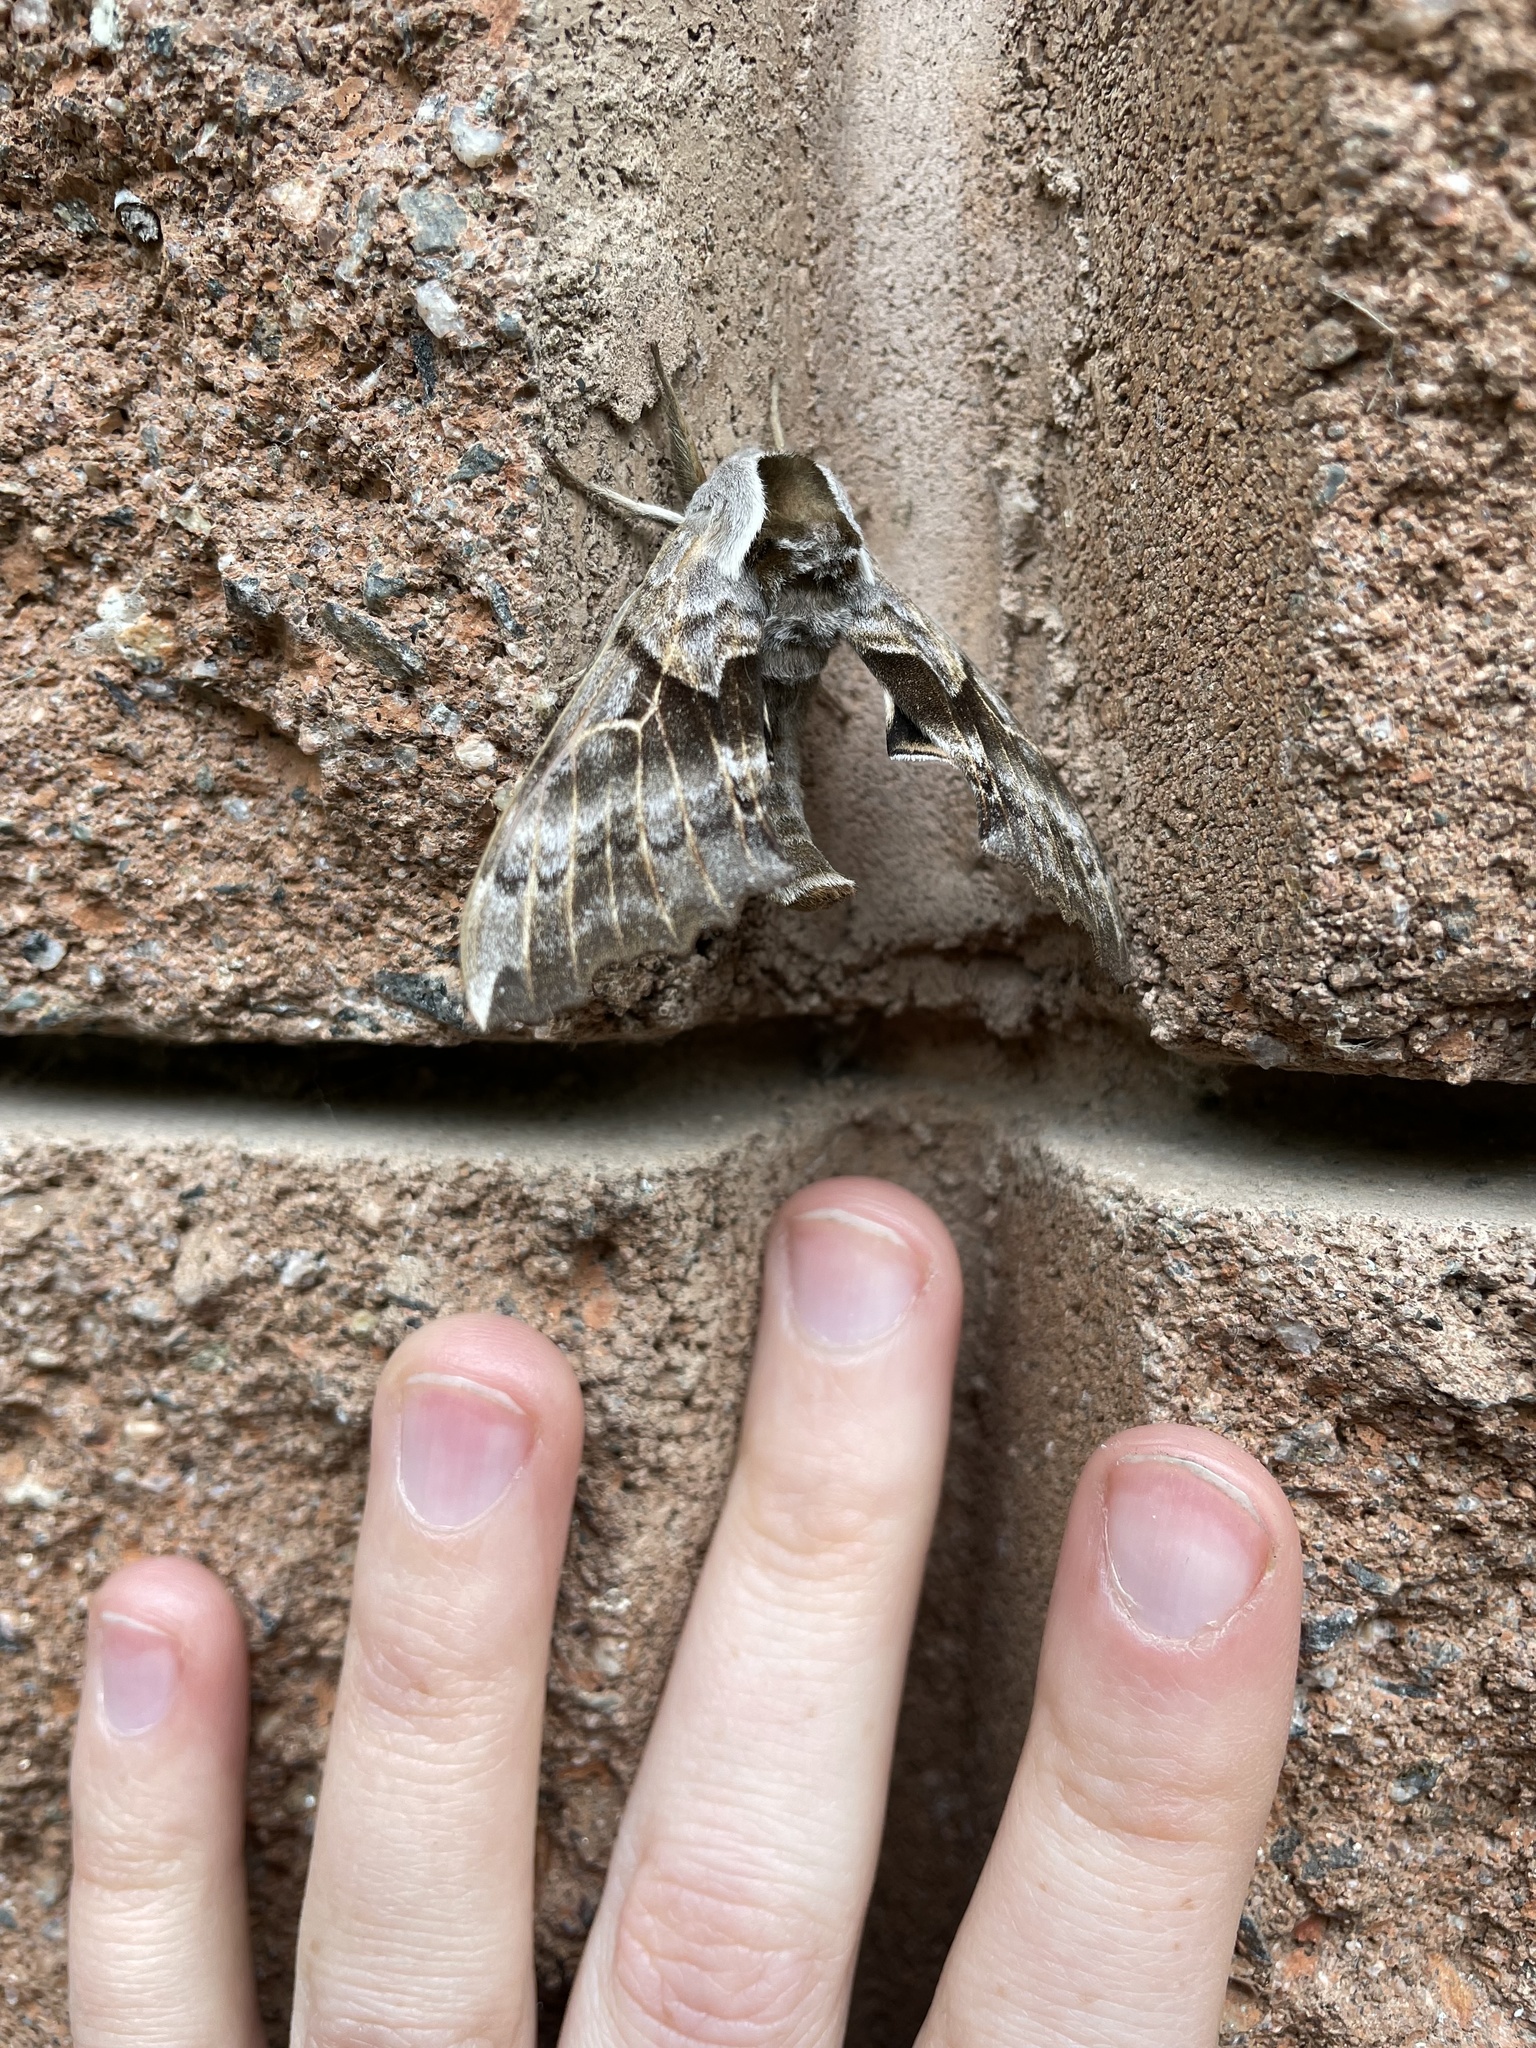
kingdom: Animalia
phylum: Arthropoda
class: Insecta
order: Lepidoptera
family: Sphingidae
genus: Smerinthus
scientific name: Smerinthus cerisyi
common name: Cerisy's sphinx moth
